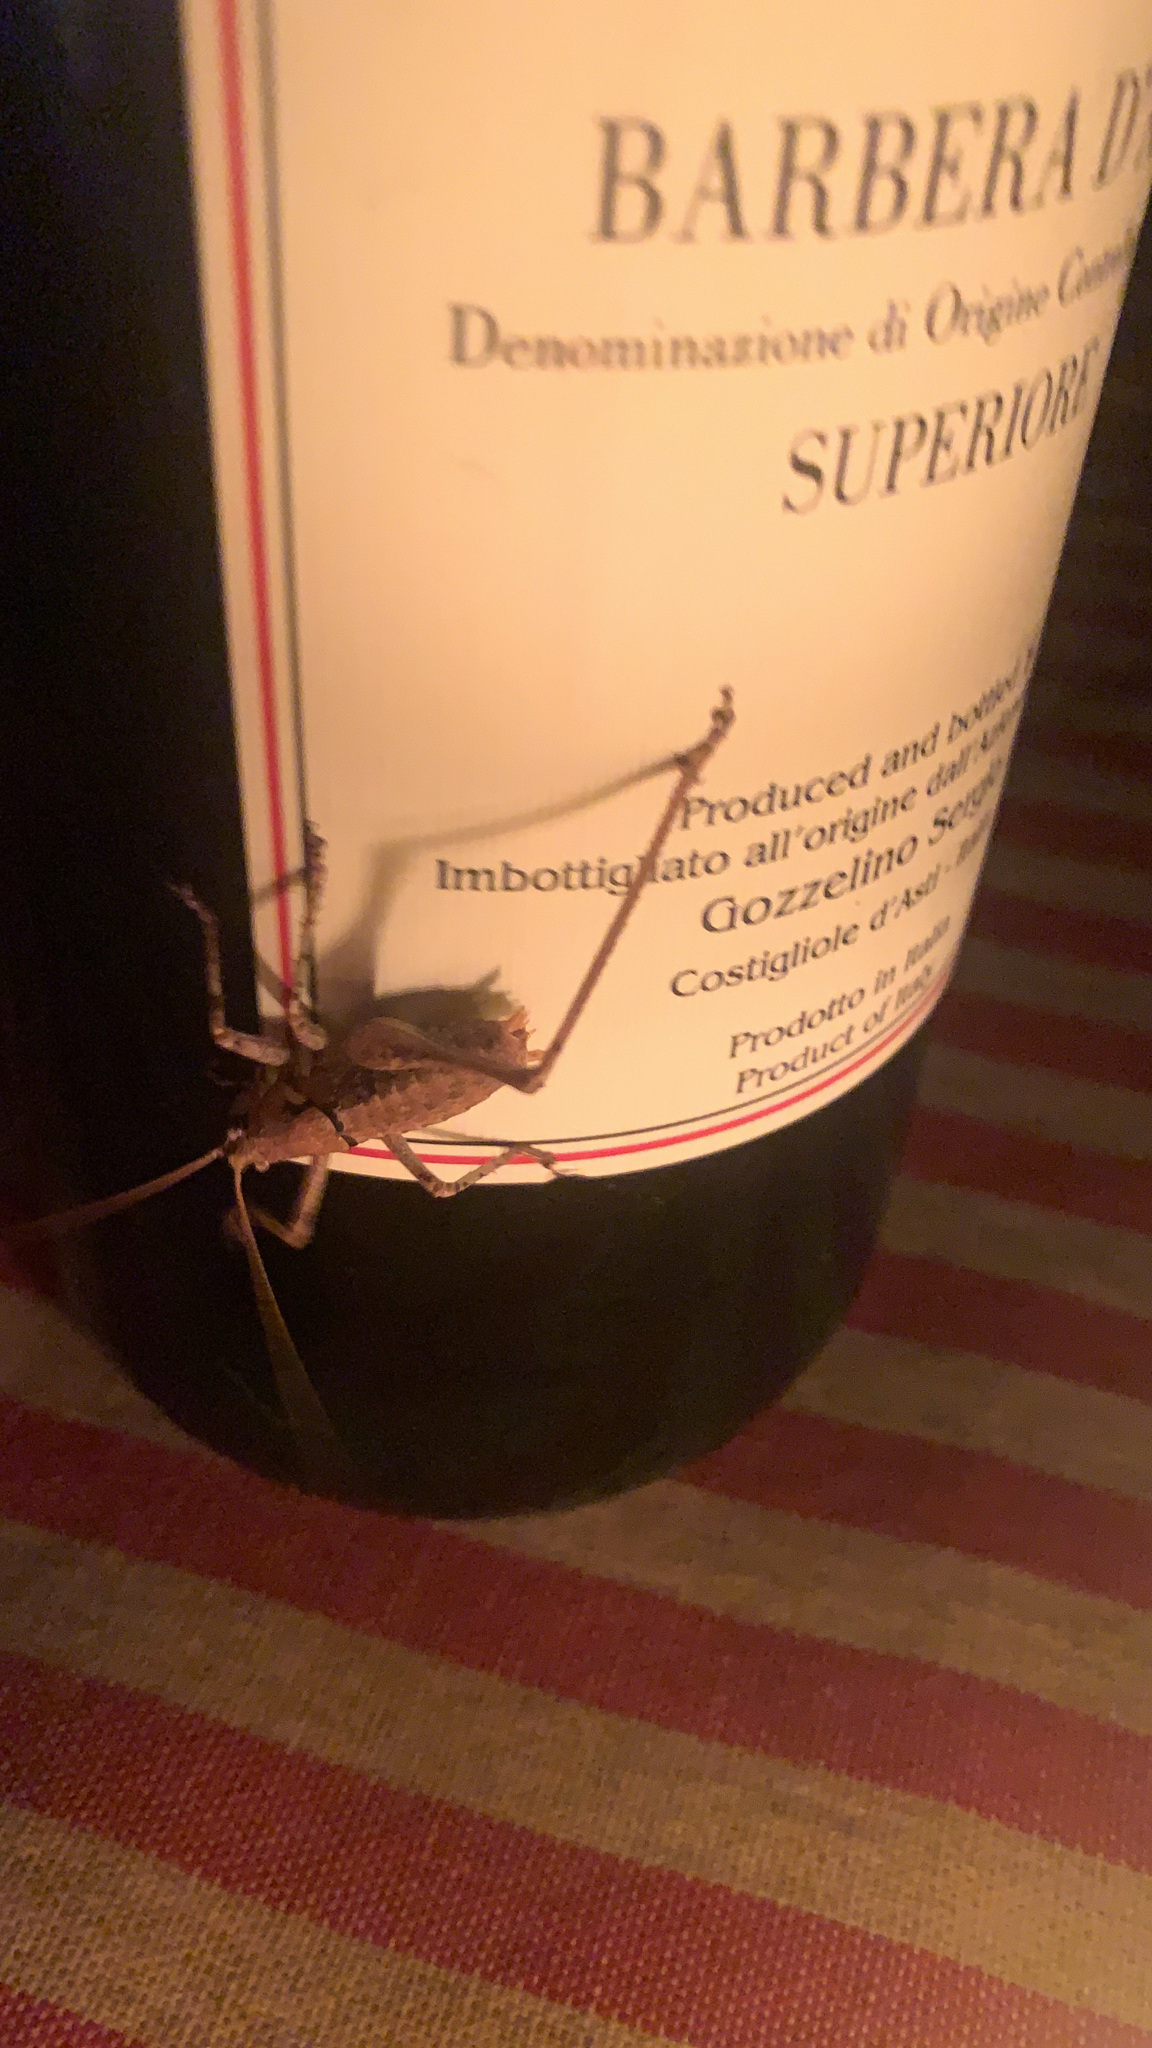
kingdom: Animalia
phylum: Arthropoda
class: Insecta
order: Orthoptera
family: Tettigoniidae
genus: Antaxius
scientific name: Antaxius pedestris
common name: Common mountain bush-cricket
